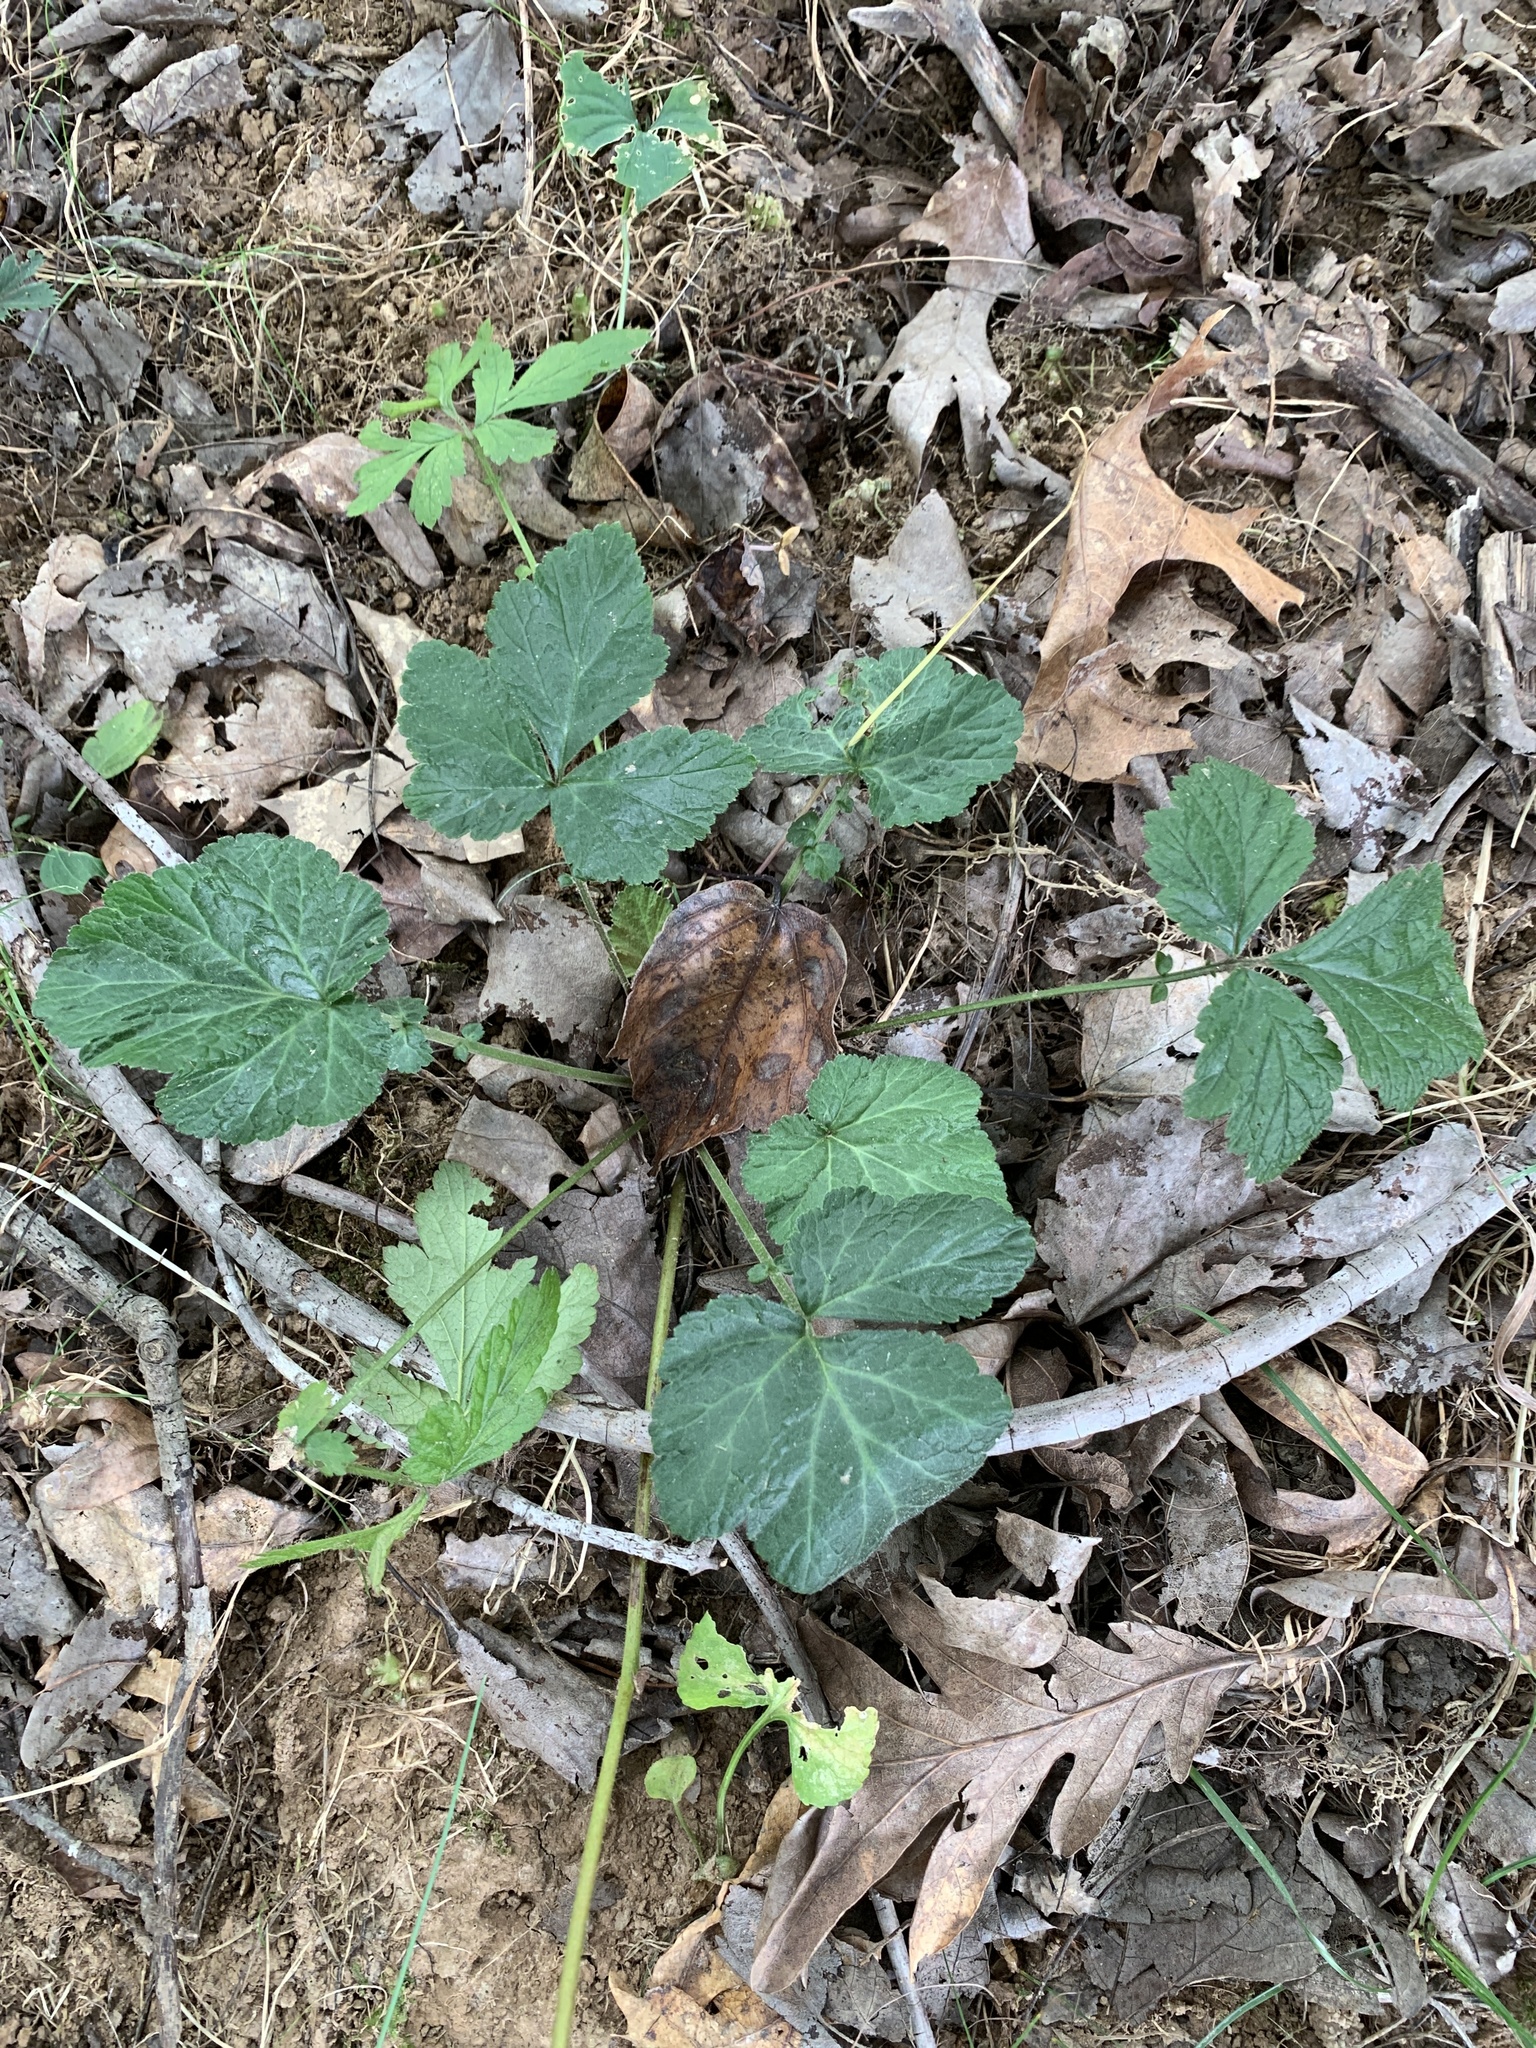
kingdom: Plantae
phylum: Tracheophyta
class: Magnoliopsida
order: Rosales
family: Rosaceae
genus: Geum
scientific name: Geum canadense
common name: White avens
